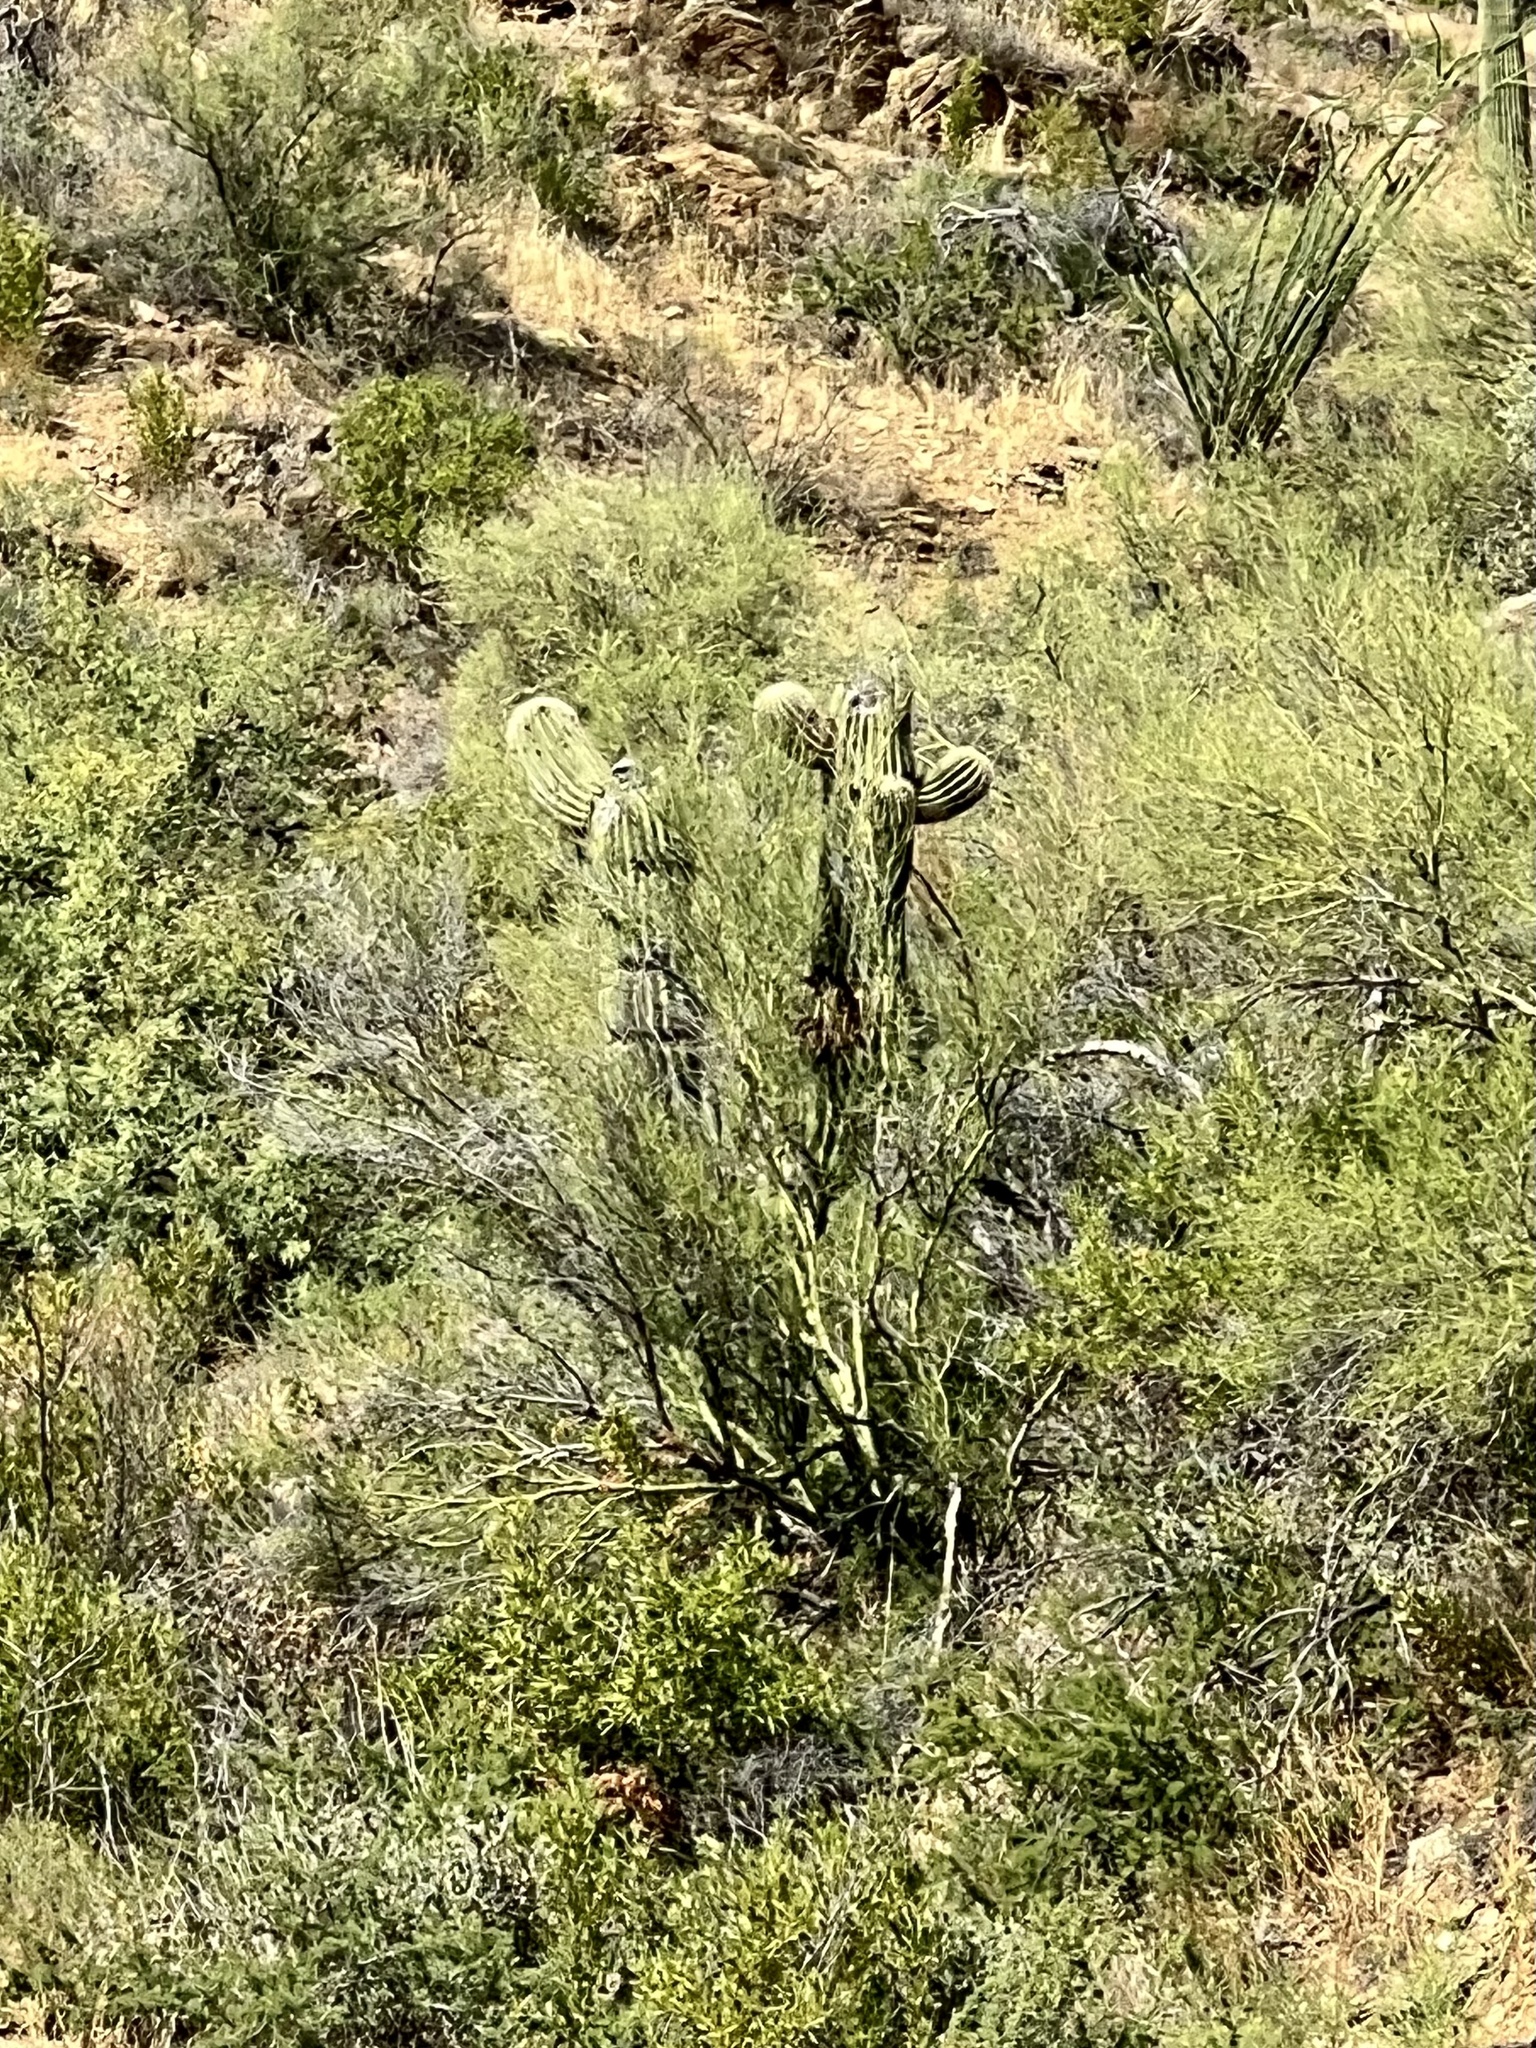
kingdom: Plantae
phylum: Tracheophyta
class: Magnoliopsida
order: Caryophyllales
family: Cactaceae
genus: Carnegiea
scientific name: Carnegiea gigantea
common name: Saguaro
